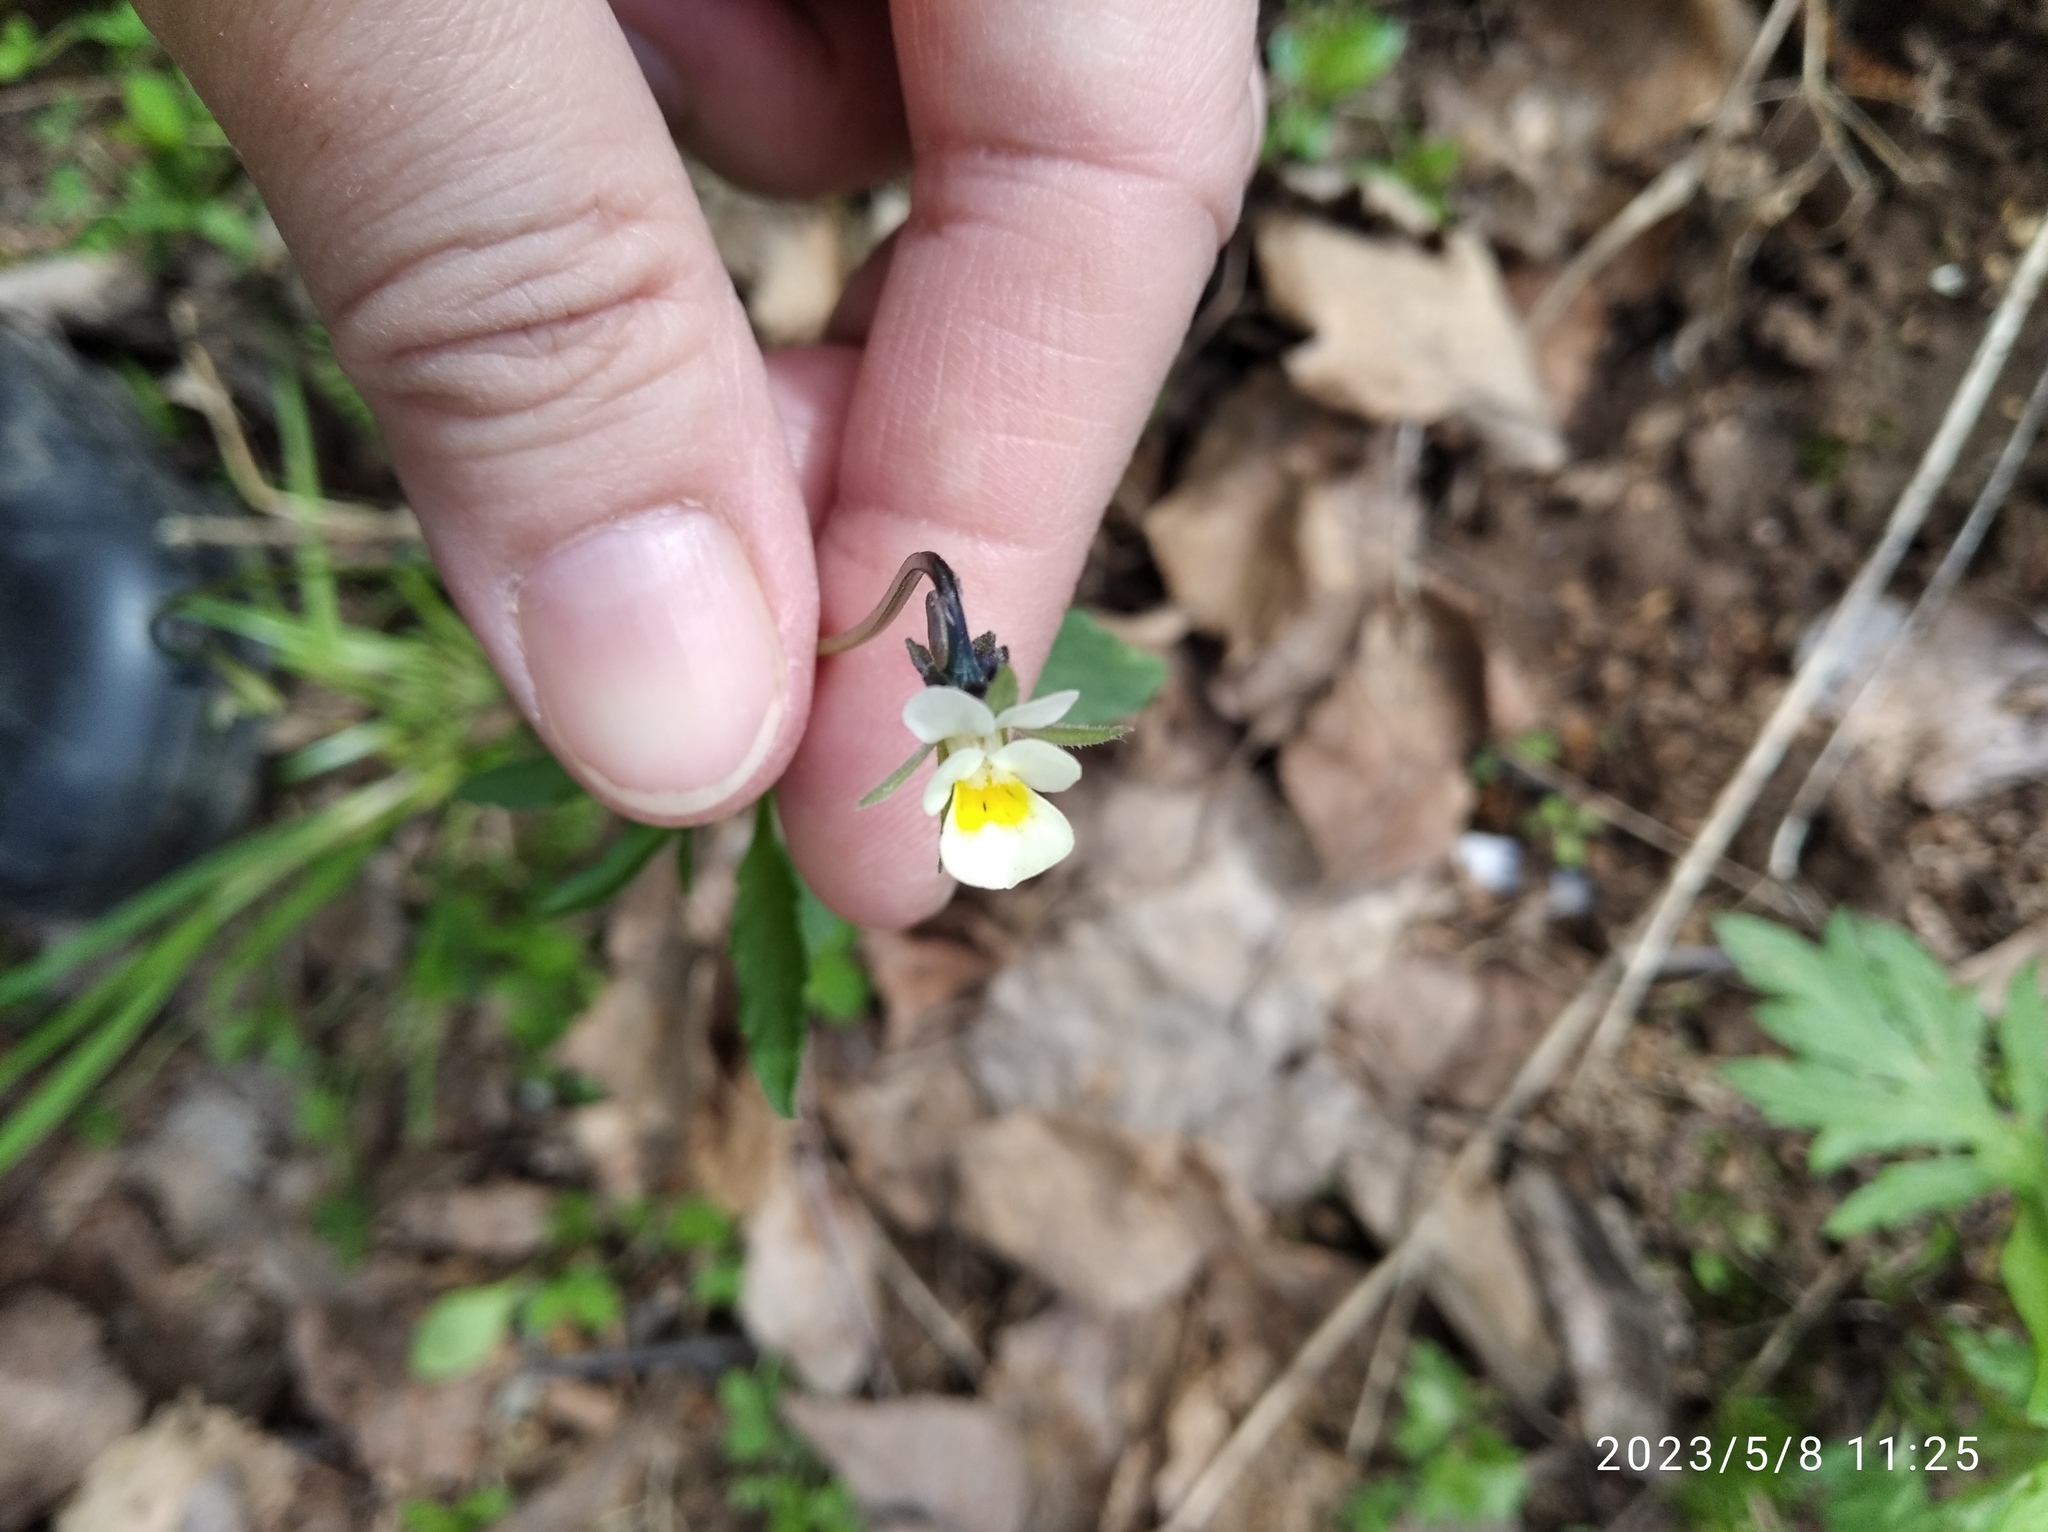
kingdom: Plantae
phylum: Tracheophyta
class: Magnoliopsida
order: Malpighiales
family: Violaceae
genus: Viola
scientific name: Viola arvensis
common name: Field pansy
